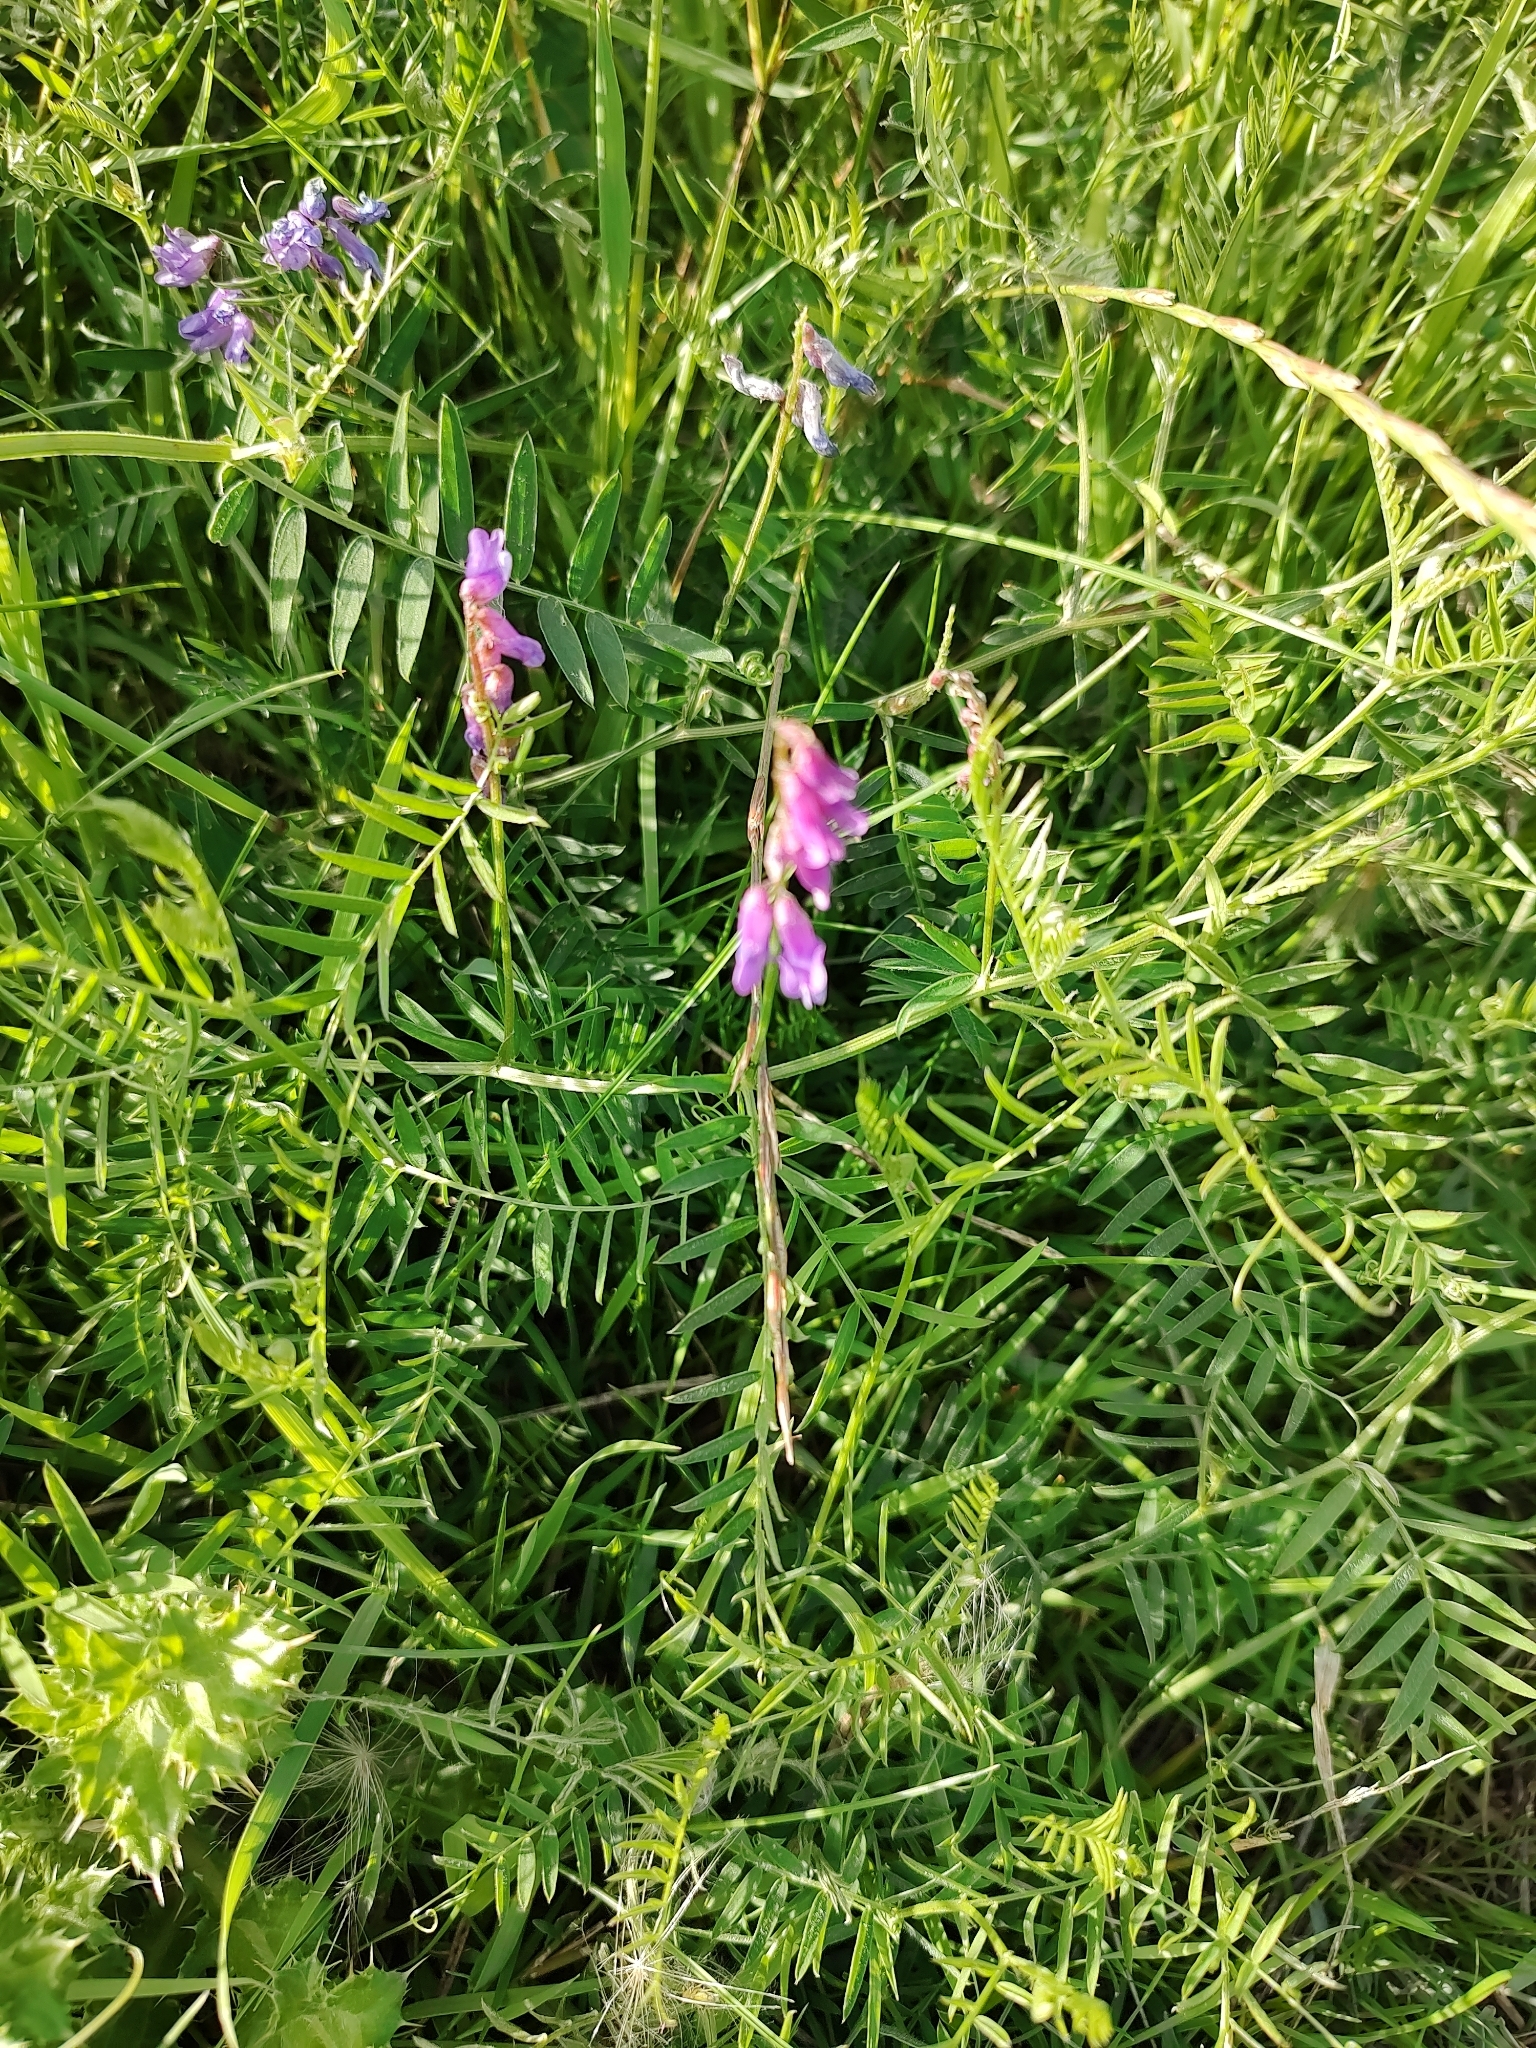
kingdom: Plantae
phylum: Tracheophyta
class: Magnoliopsida
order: Fabales
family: Fabaceae
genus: Vicia
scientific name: Vicia cracca
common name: Bird vetch
